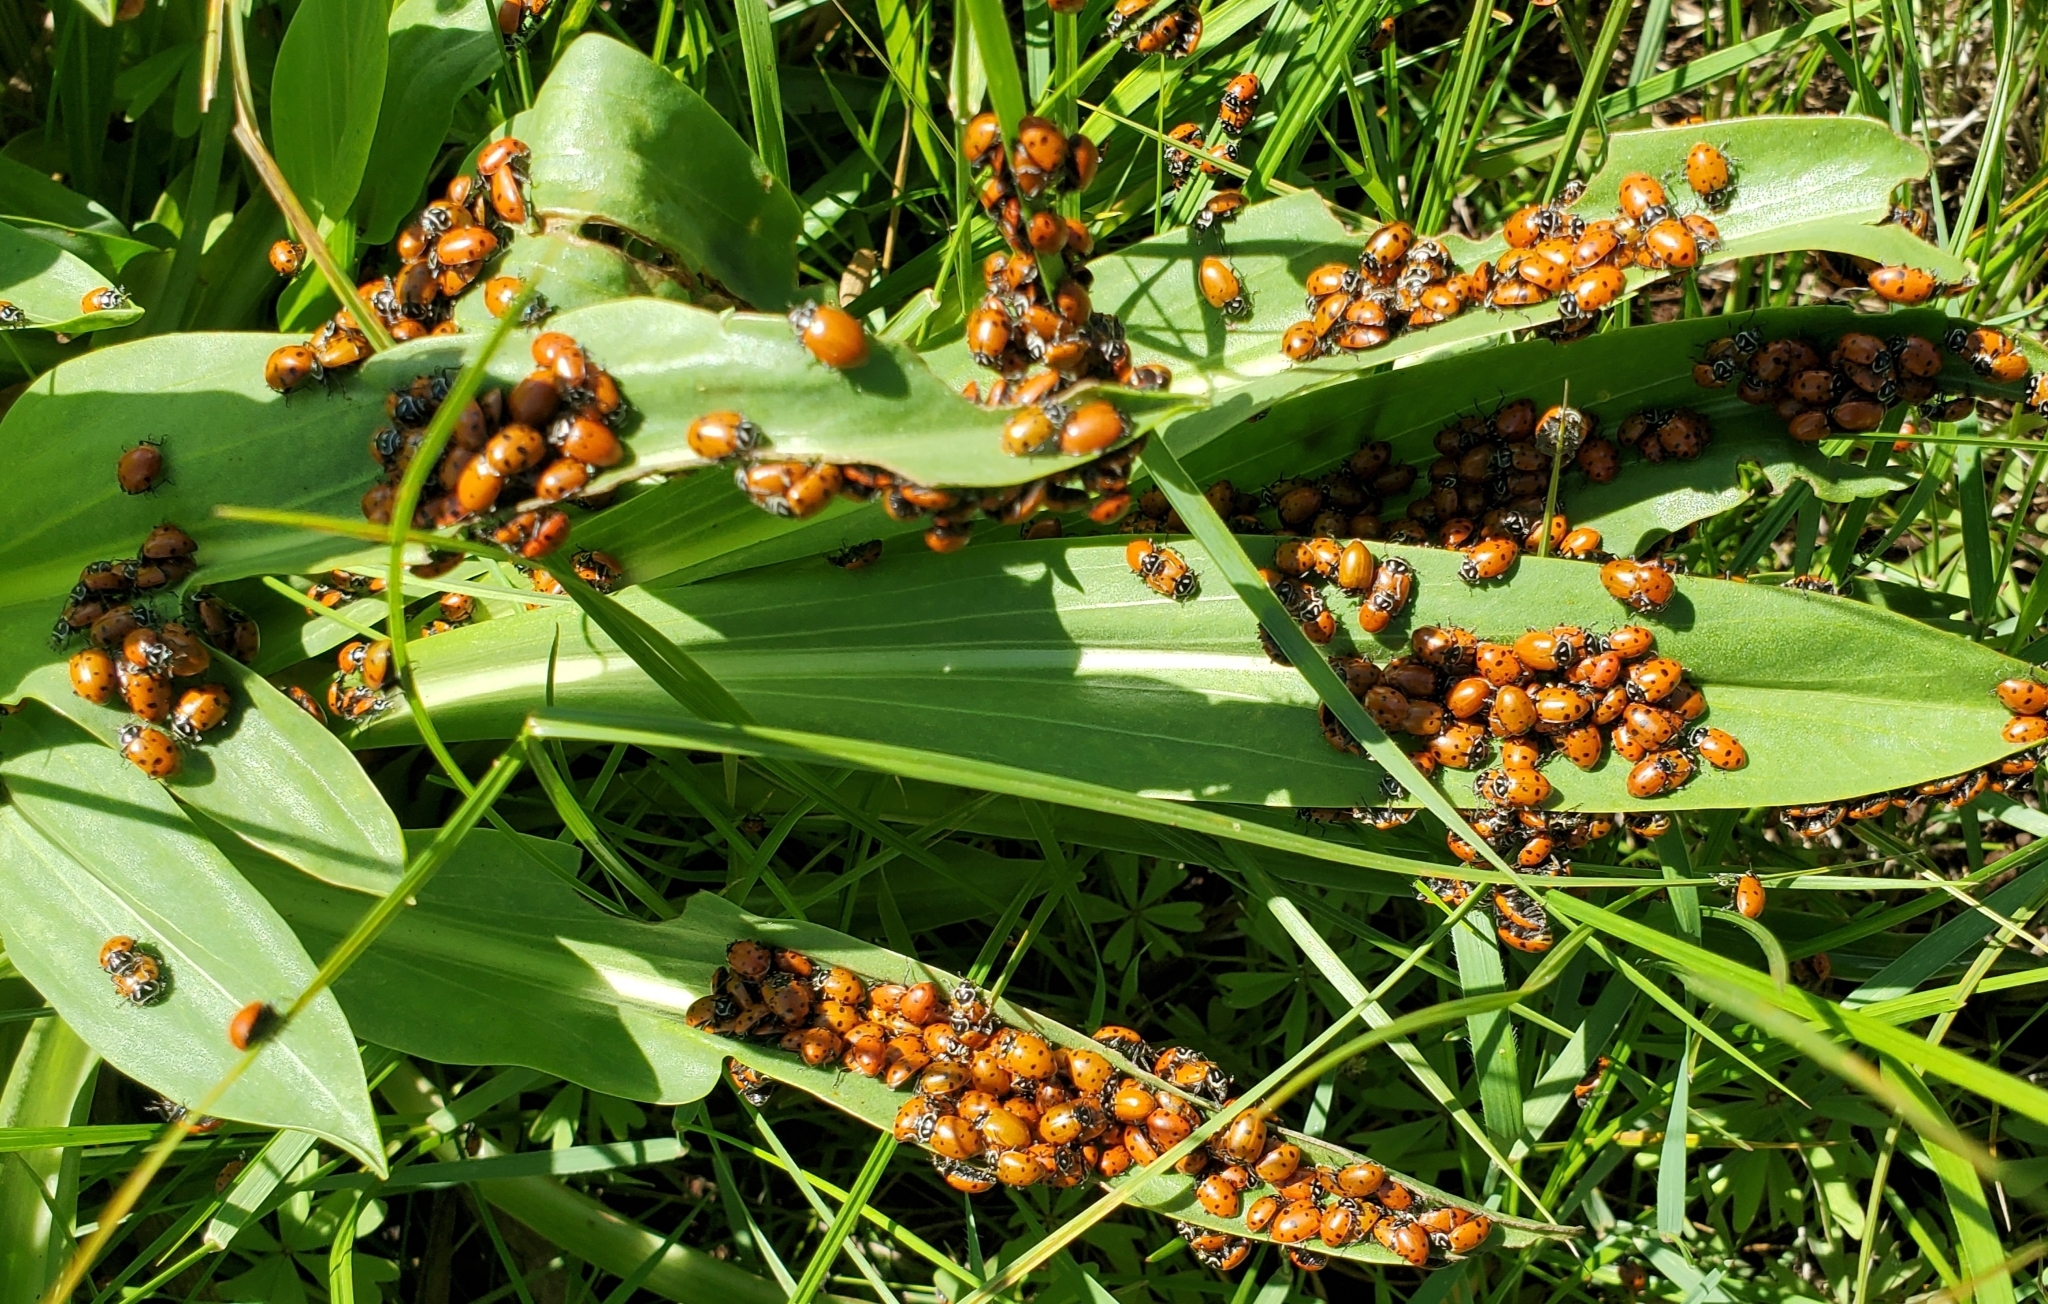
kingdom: Animalia
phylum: Arthropoda
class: Insecta
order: Coleoptera
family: Coccinellidae
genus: Hippodamia
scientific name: Hippodamia convergens
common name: Convergent lady beetle
